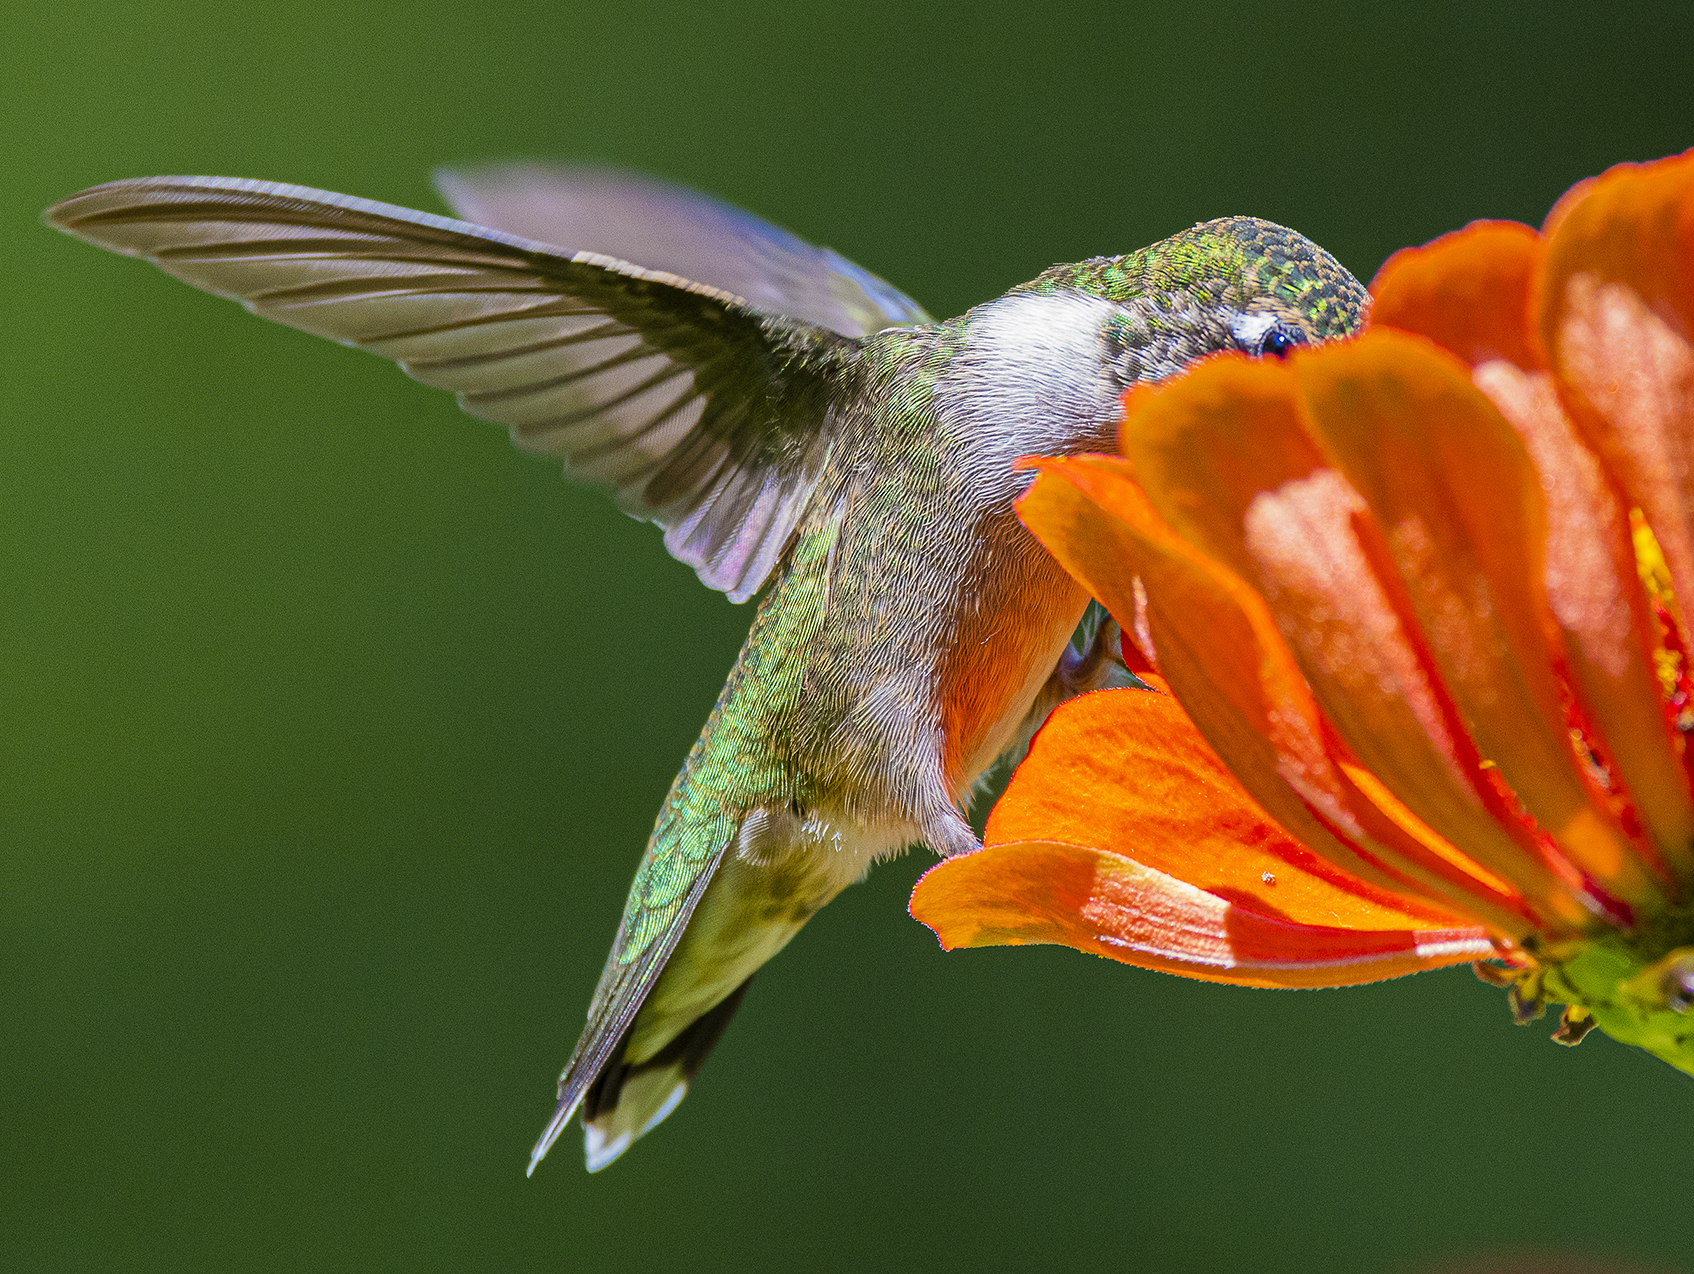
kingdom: Animalia
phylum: Chordata
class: Aves
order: Apodiformes
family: Trochilidae
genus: Archilochus
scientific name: Archilochus colubris
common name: Ruby-throated hummingbird
